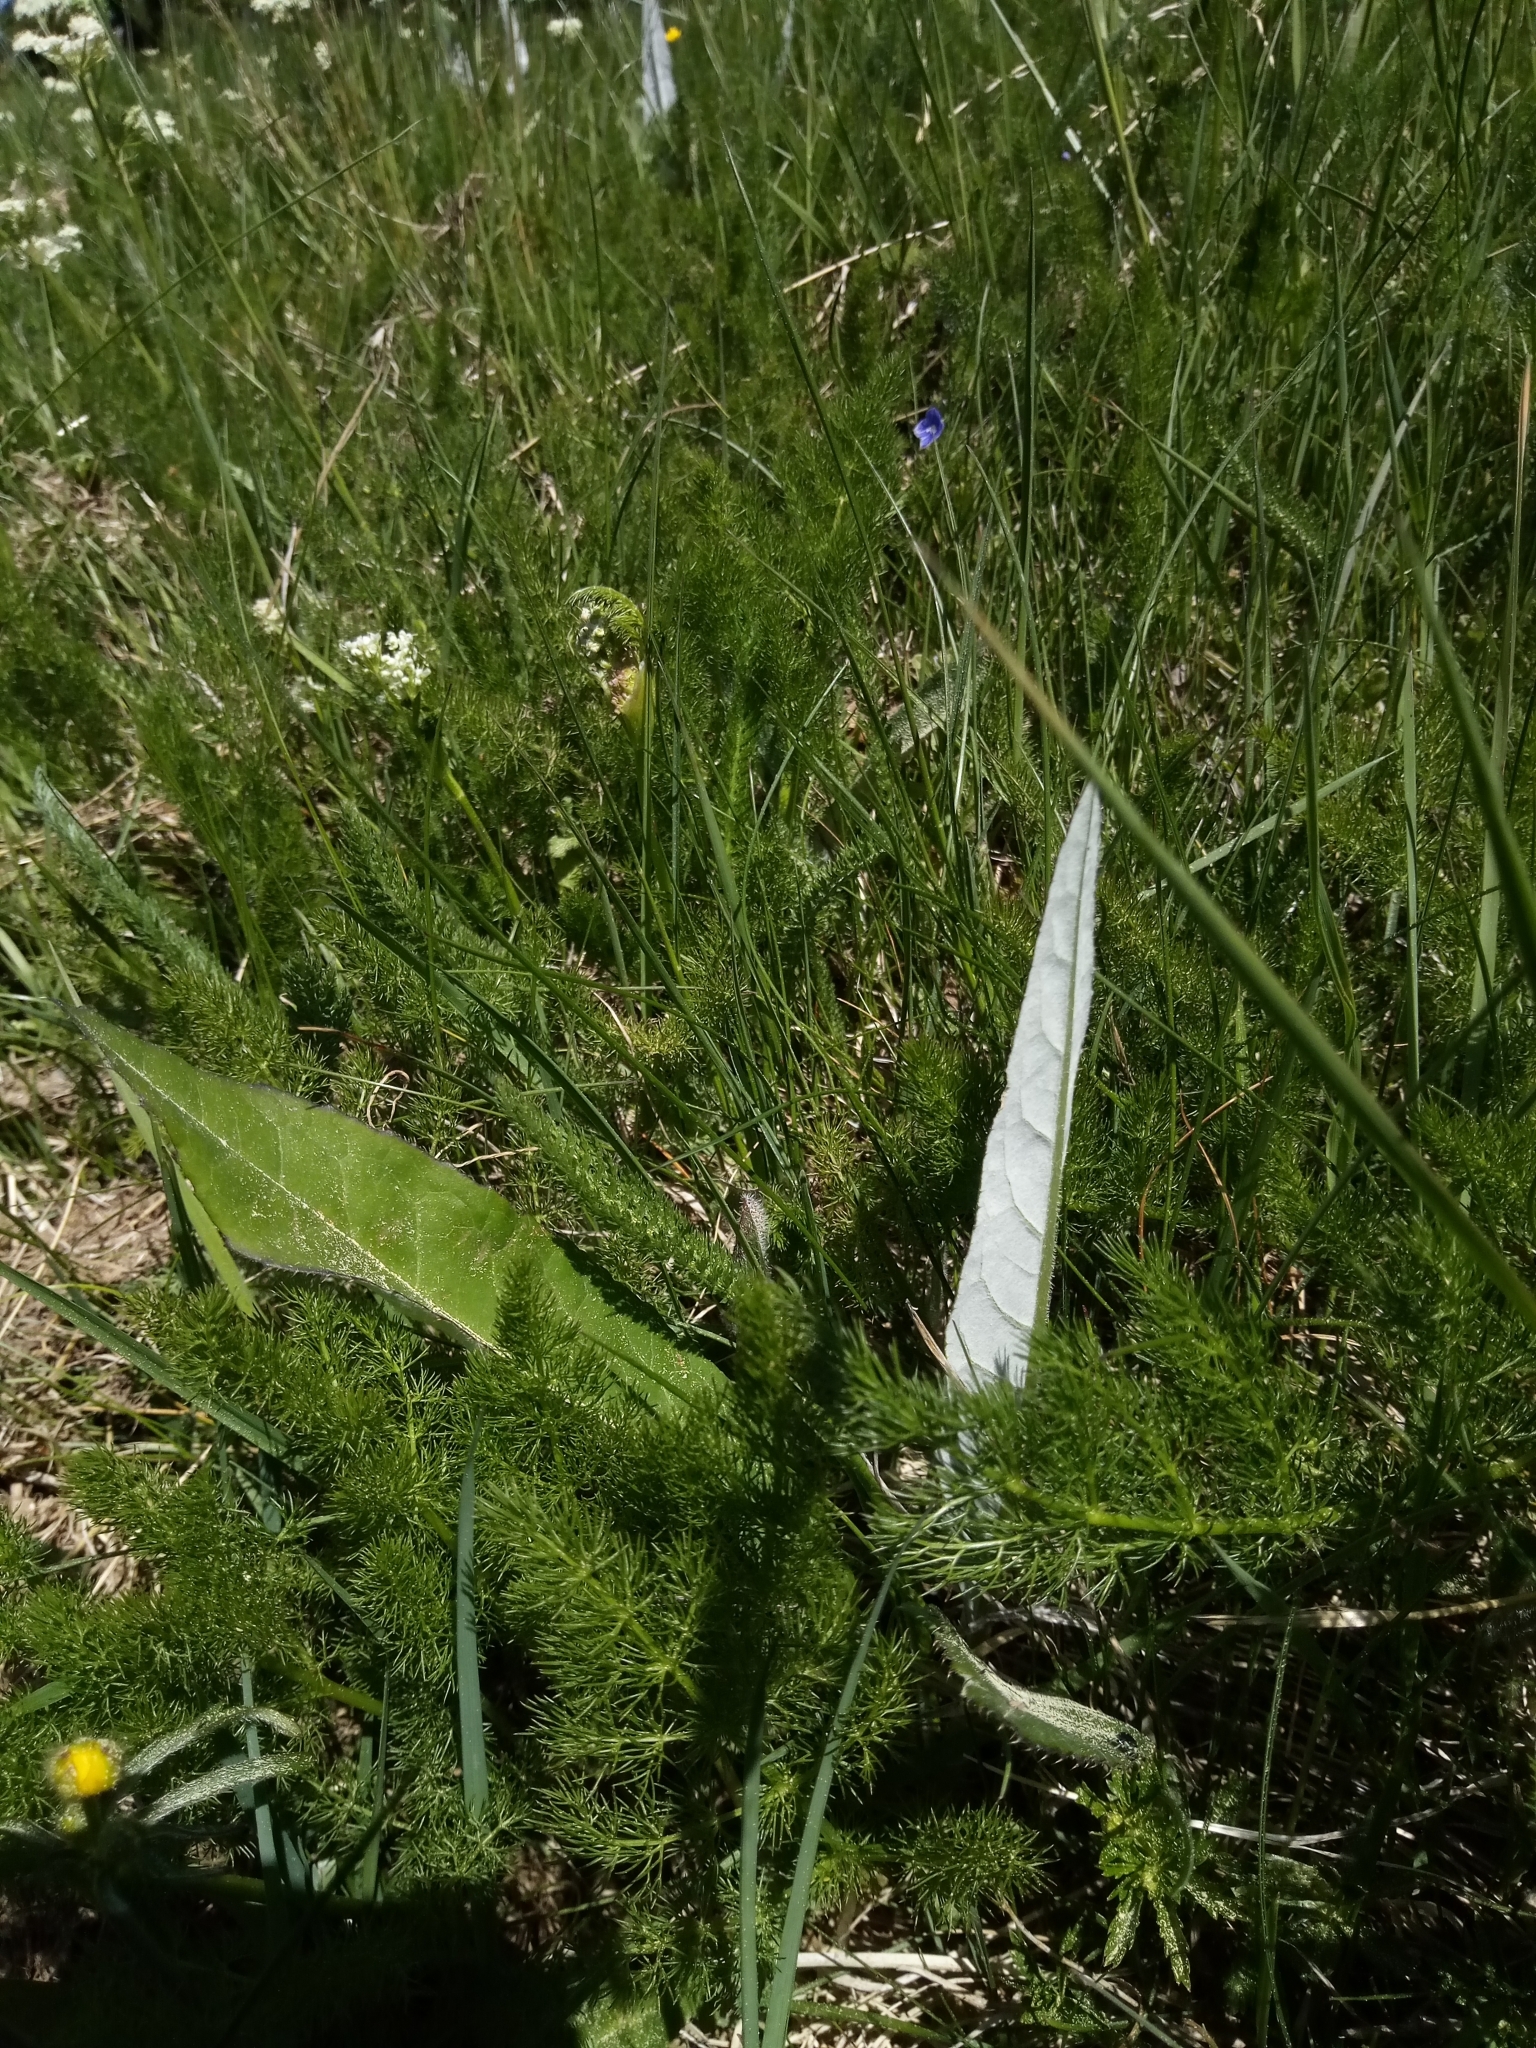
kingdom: Plantae
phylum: Tracheophyta
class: Magnoliopsida
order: Asterales
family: Asteraceae
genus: Cirsium
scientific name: Cirsium heterophyllum
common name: Melancholy thistle
